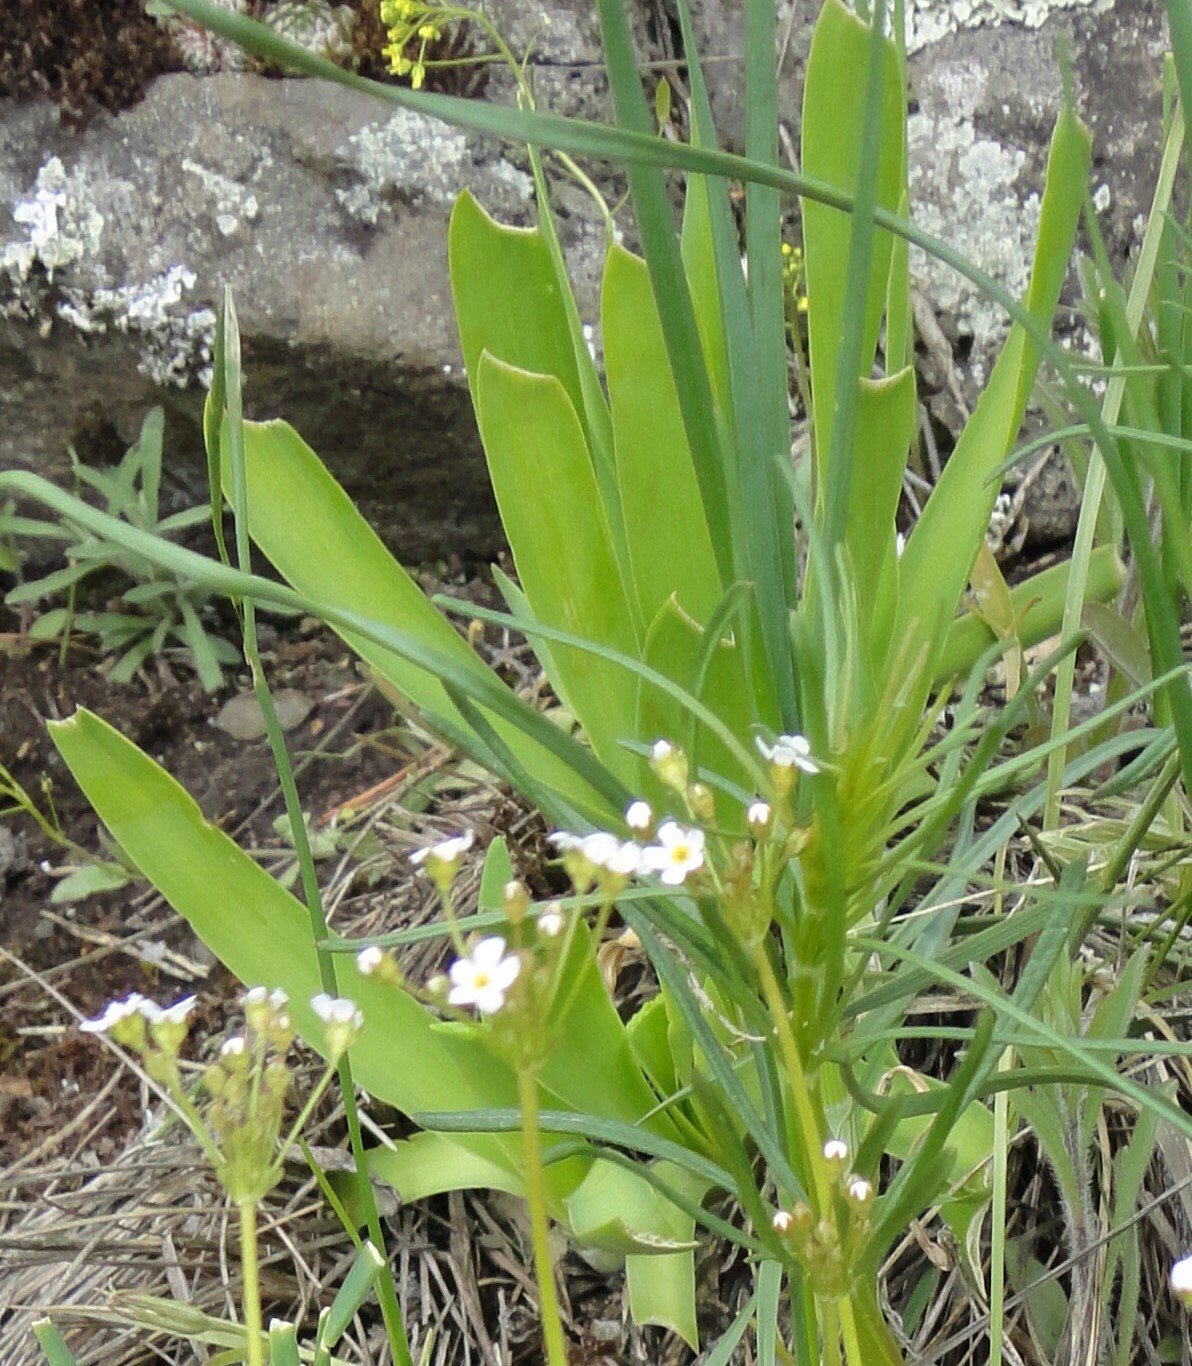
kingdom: Plantae
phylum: Tracheophyta
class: Liliopsida
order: Asparagales
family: Amaryllidaceae
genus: Allium
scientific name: Allium nutans
